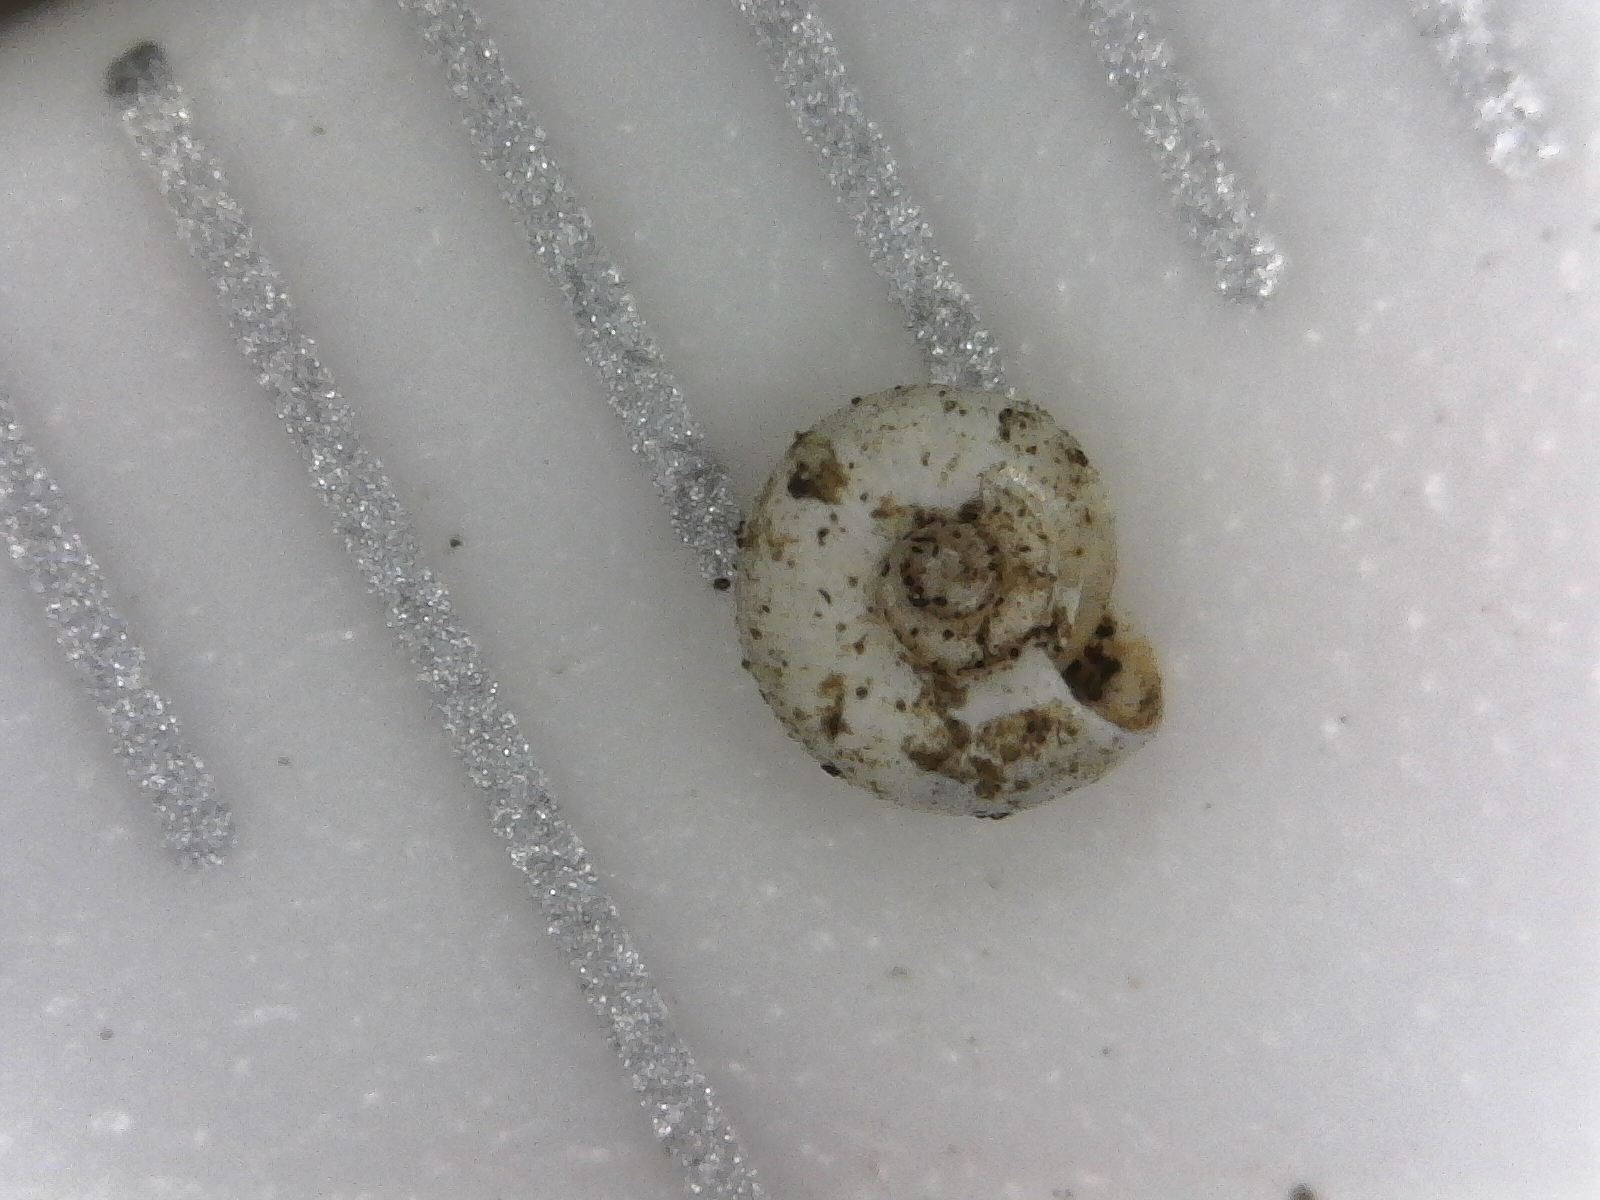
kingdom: Animalia
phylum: Mollusca
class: Gastropoda
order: Stylommatophora
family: Pristilomatidae
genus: Hawaiia
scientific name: Hawaiia minuscula
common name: Minute gem
